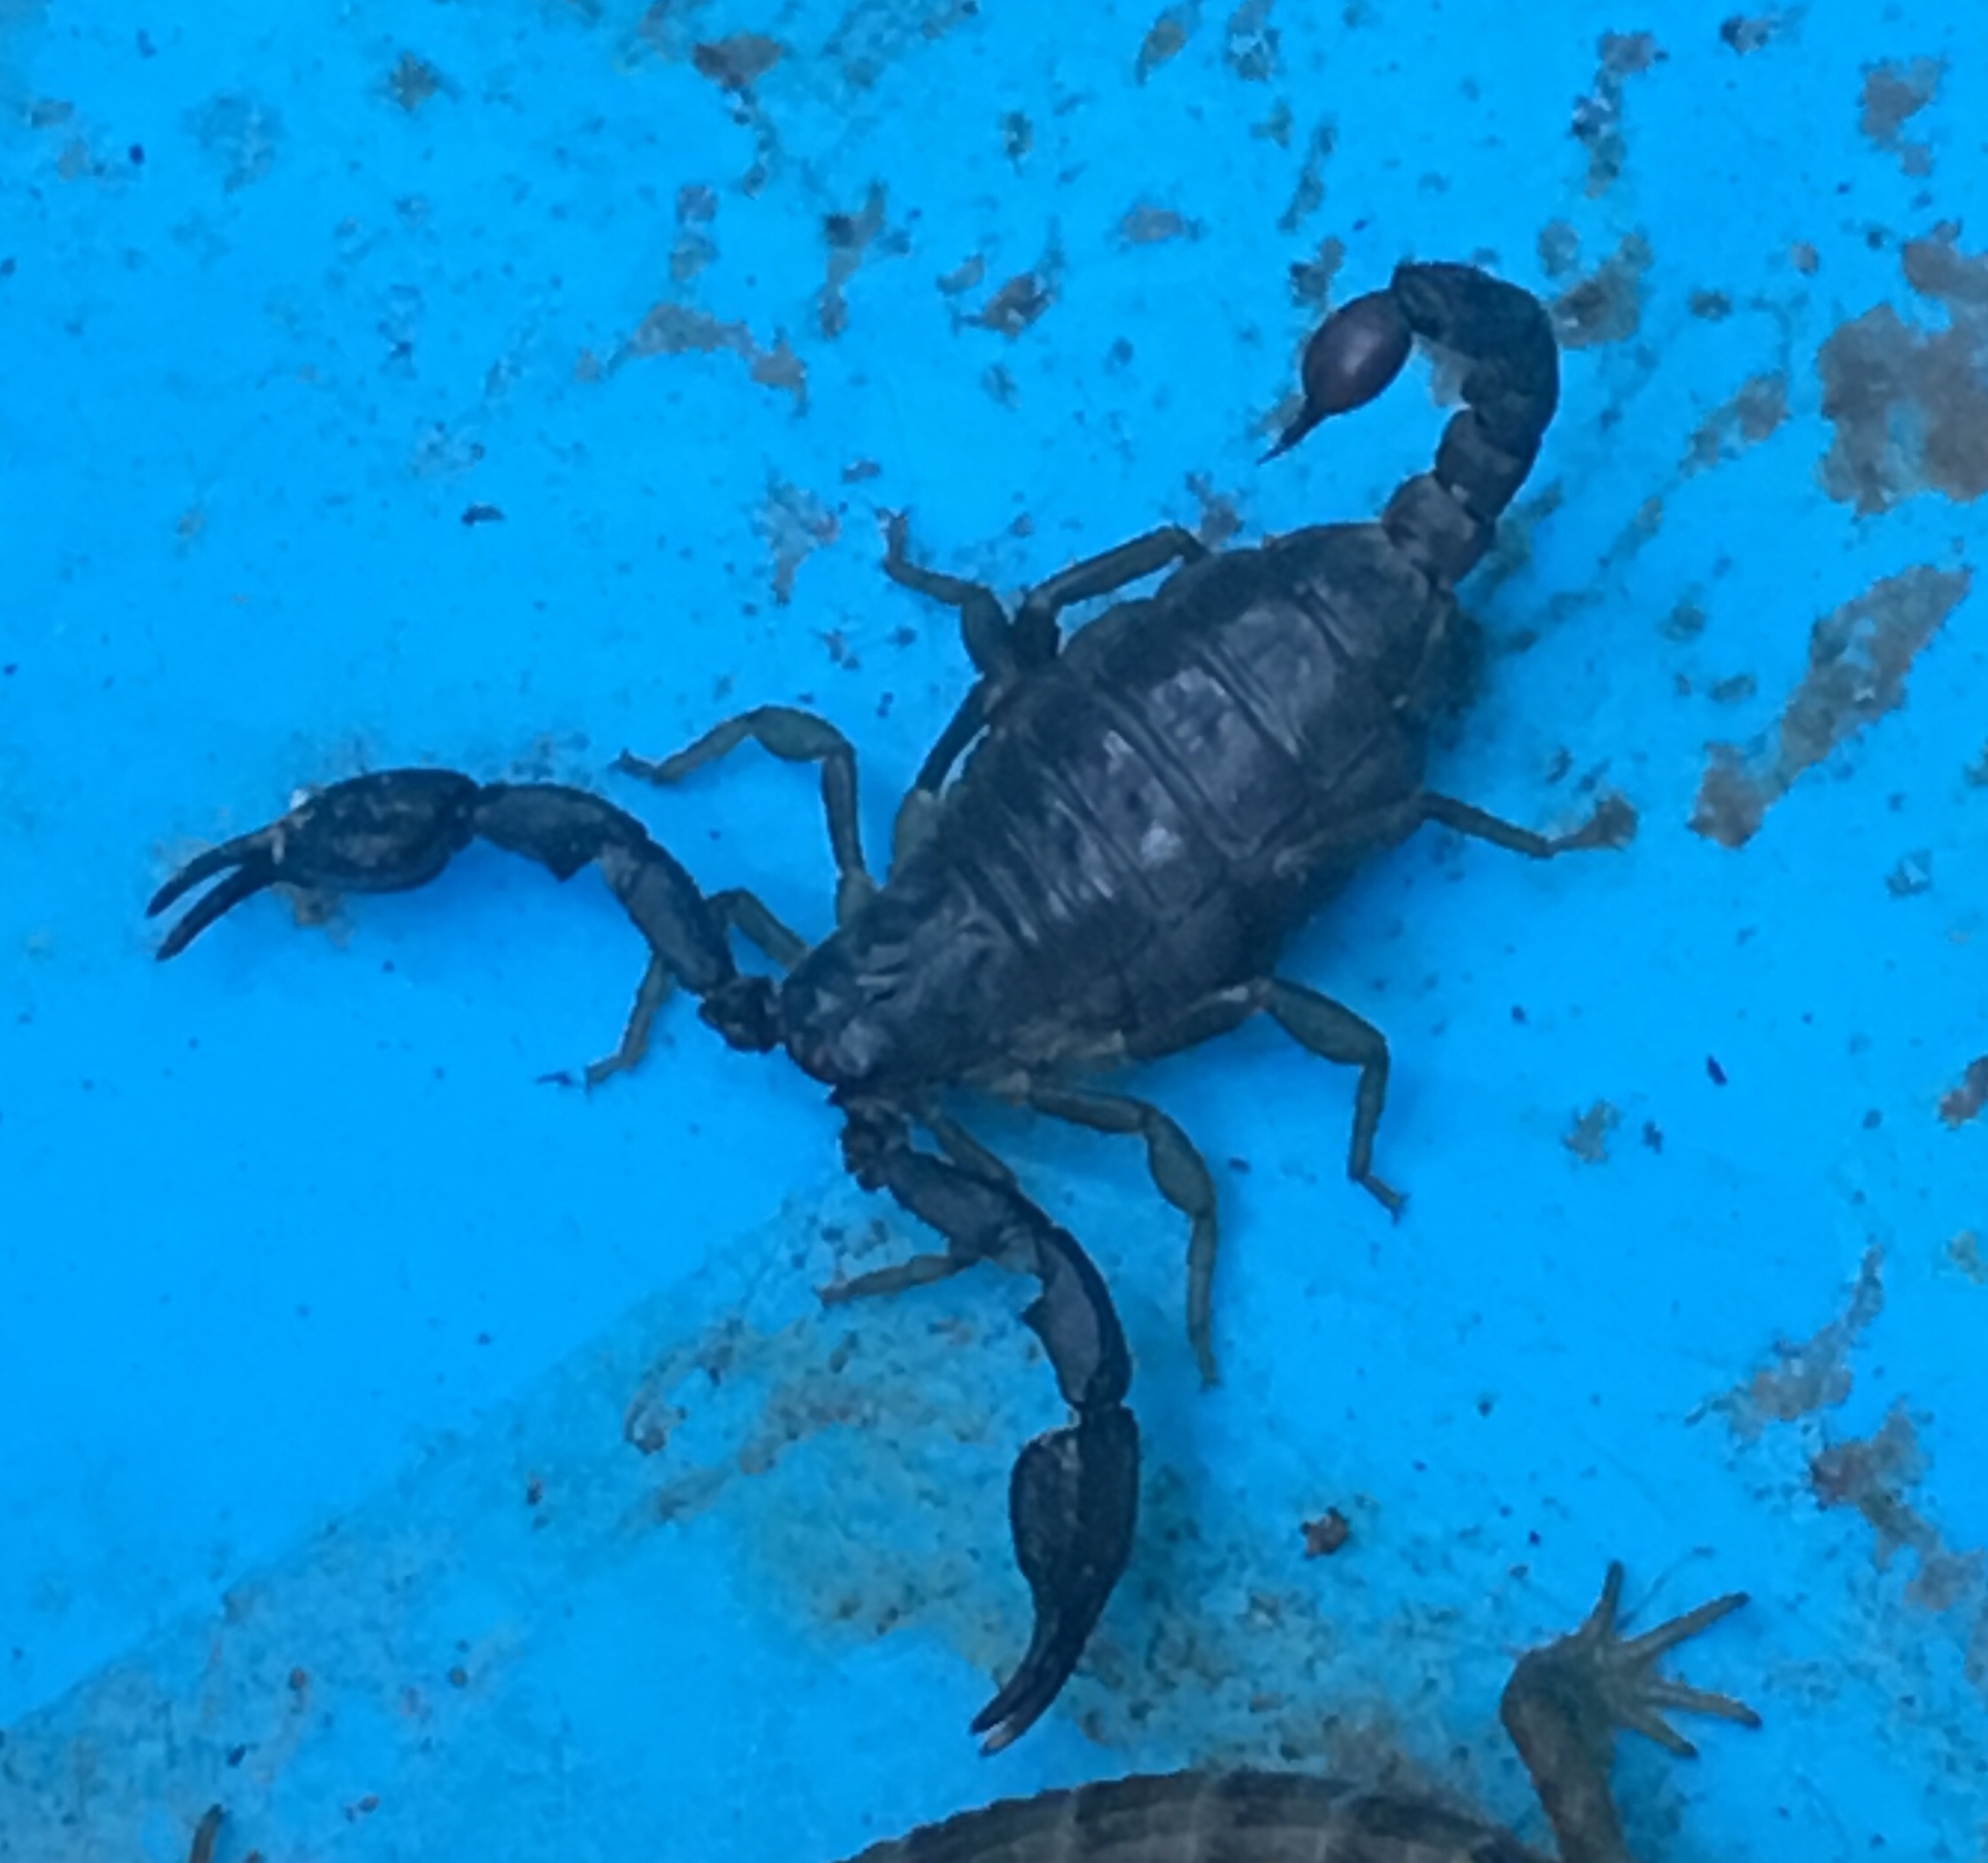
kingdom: Animalia
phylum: Arthropoda
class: Arachnida
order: Scorpiones
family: Chactidae
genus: Uroctonus
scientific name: Uroctonus mordax
